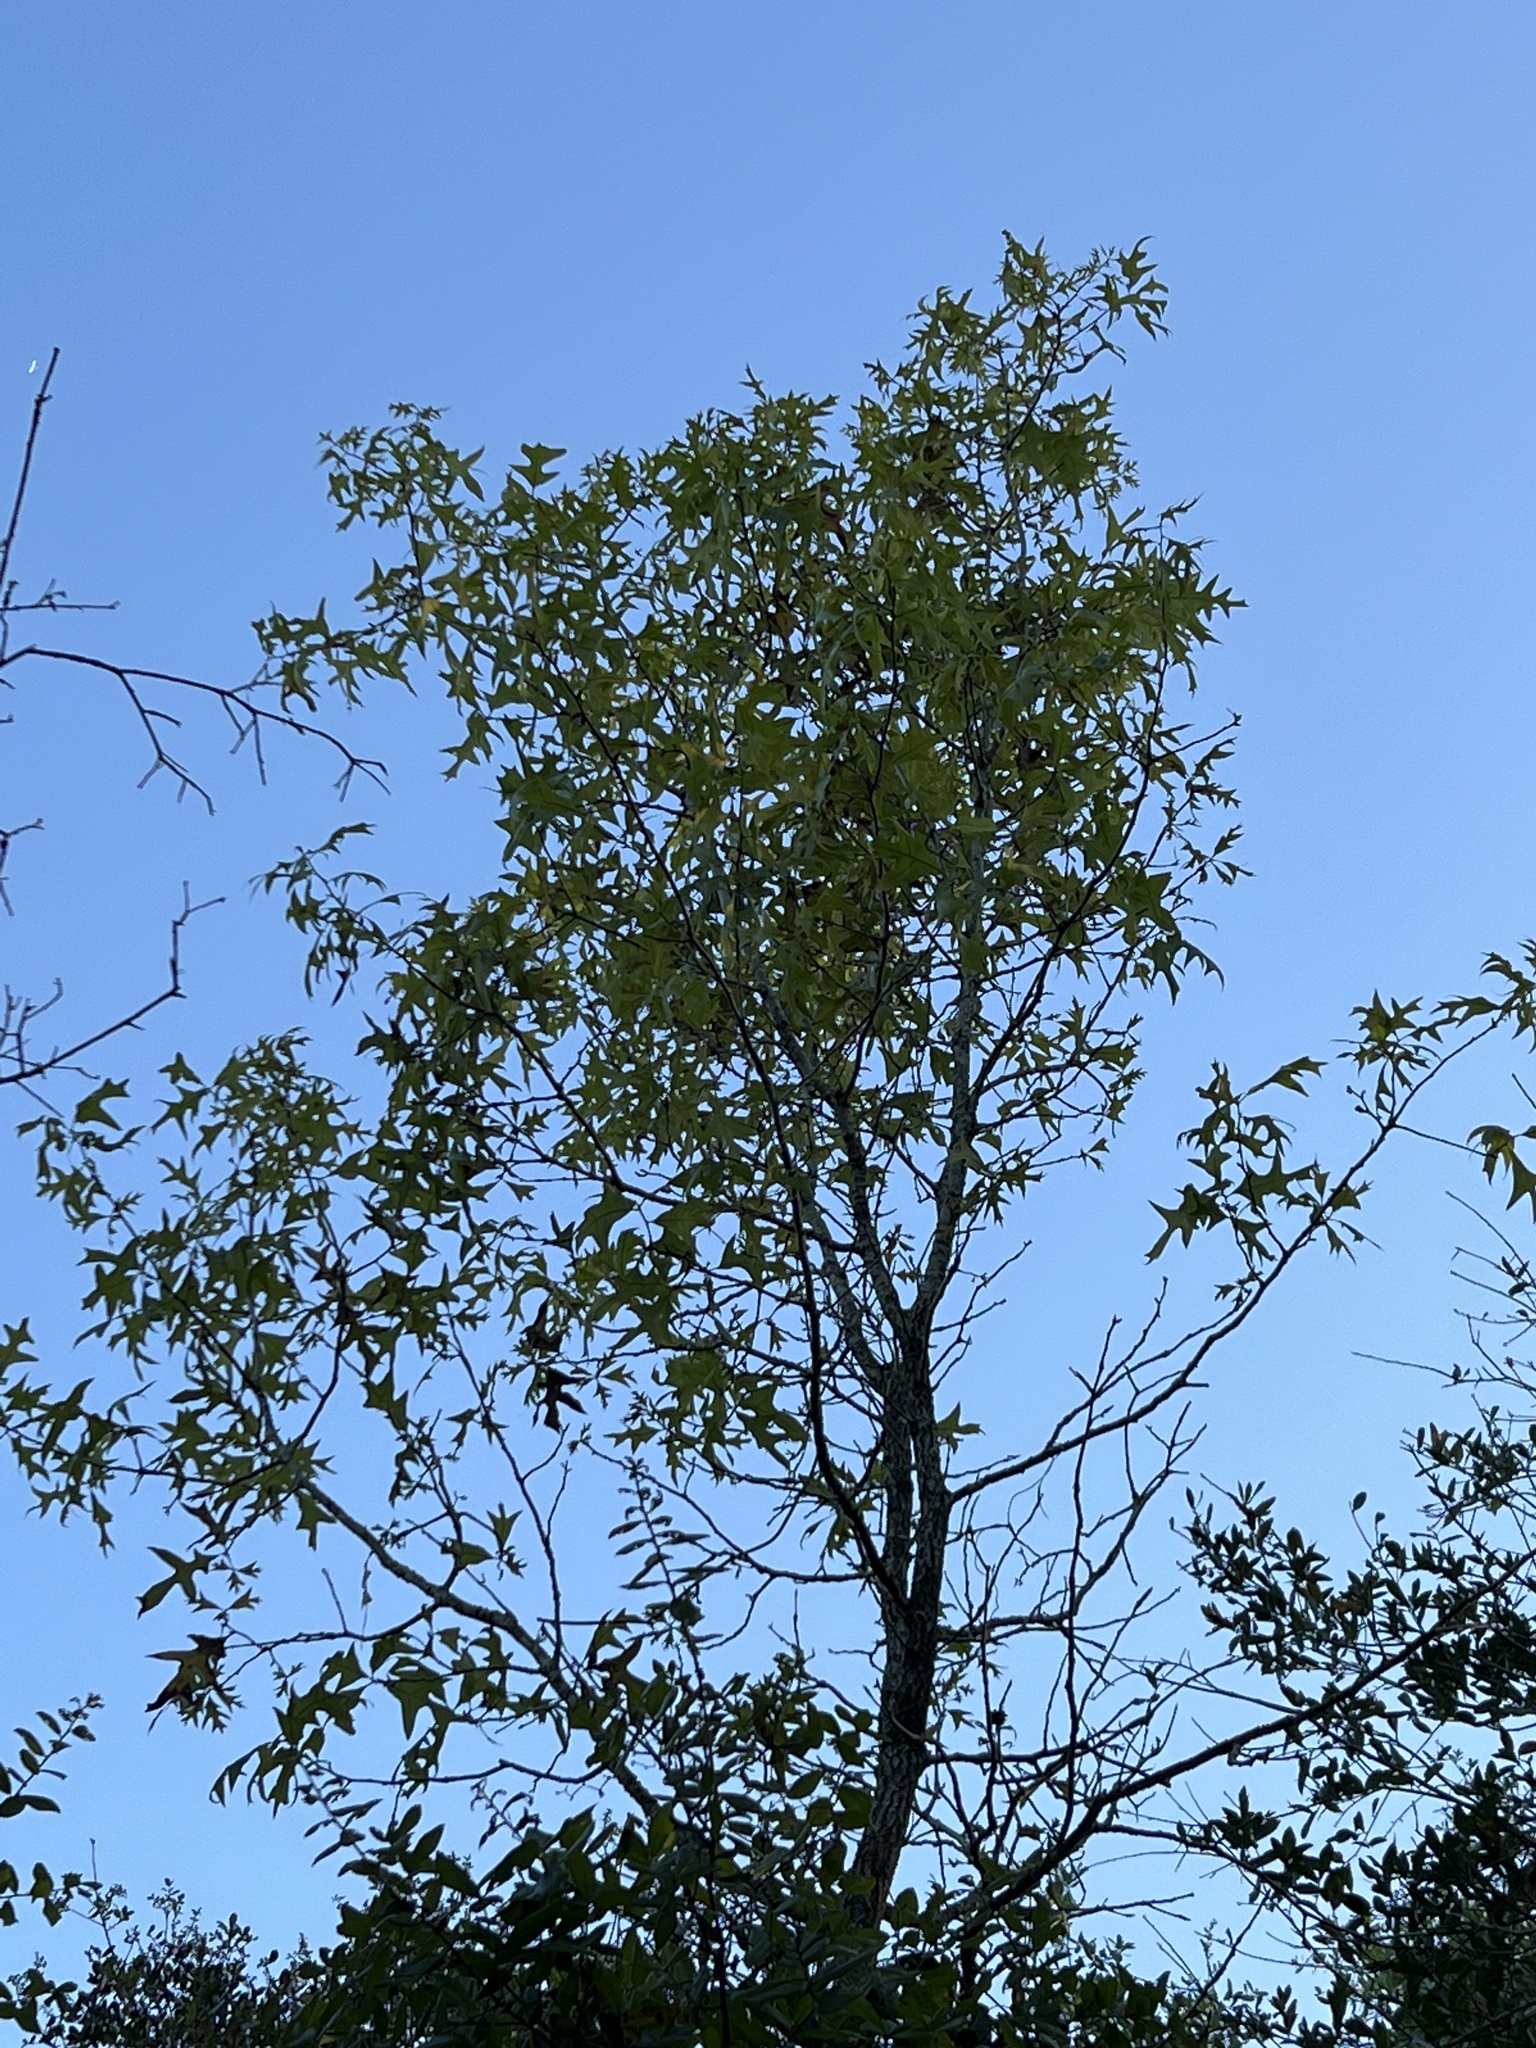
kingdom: Plantae
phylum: Tracheophyta
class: Magnoliopsida
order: Fagales
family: Fagaceae
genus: Quercus
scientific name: Quercus laevis
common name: Turkey oak
